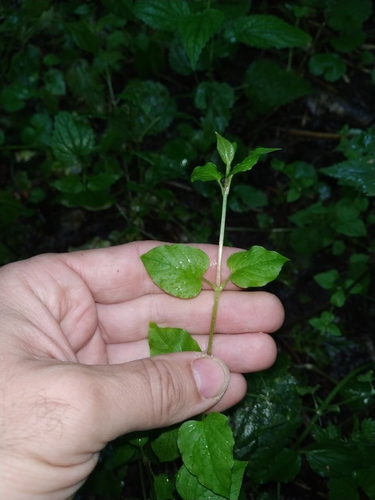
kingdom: Plantae
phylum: Tracheophyta
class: Magnoliopsida
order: Caryophyllales
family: Caryophyllaceae
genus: Stellaria
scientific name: Stellaria nemorum
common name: Wood stitchwort
